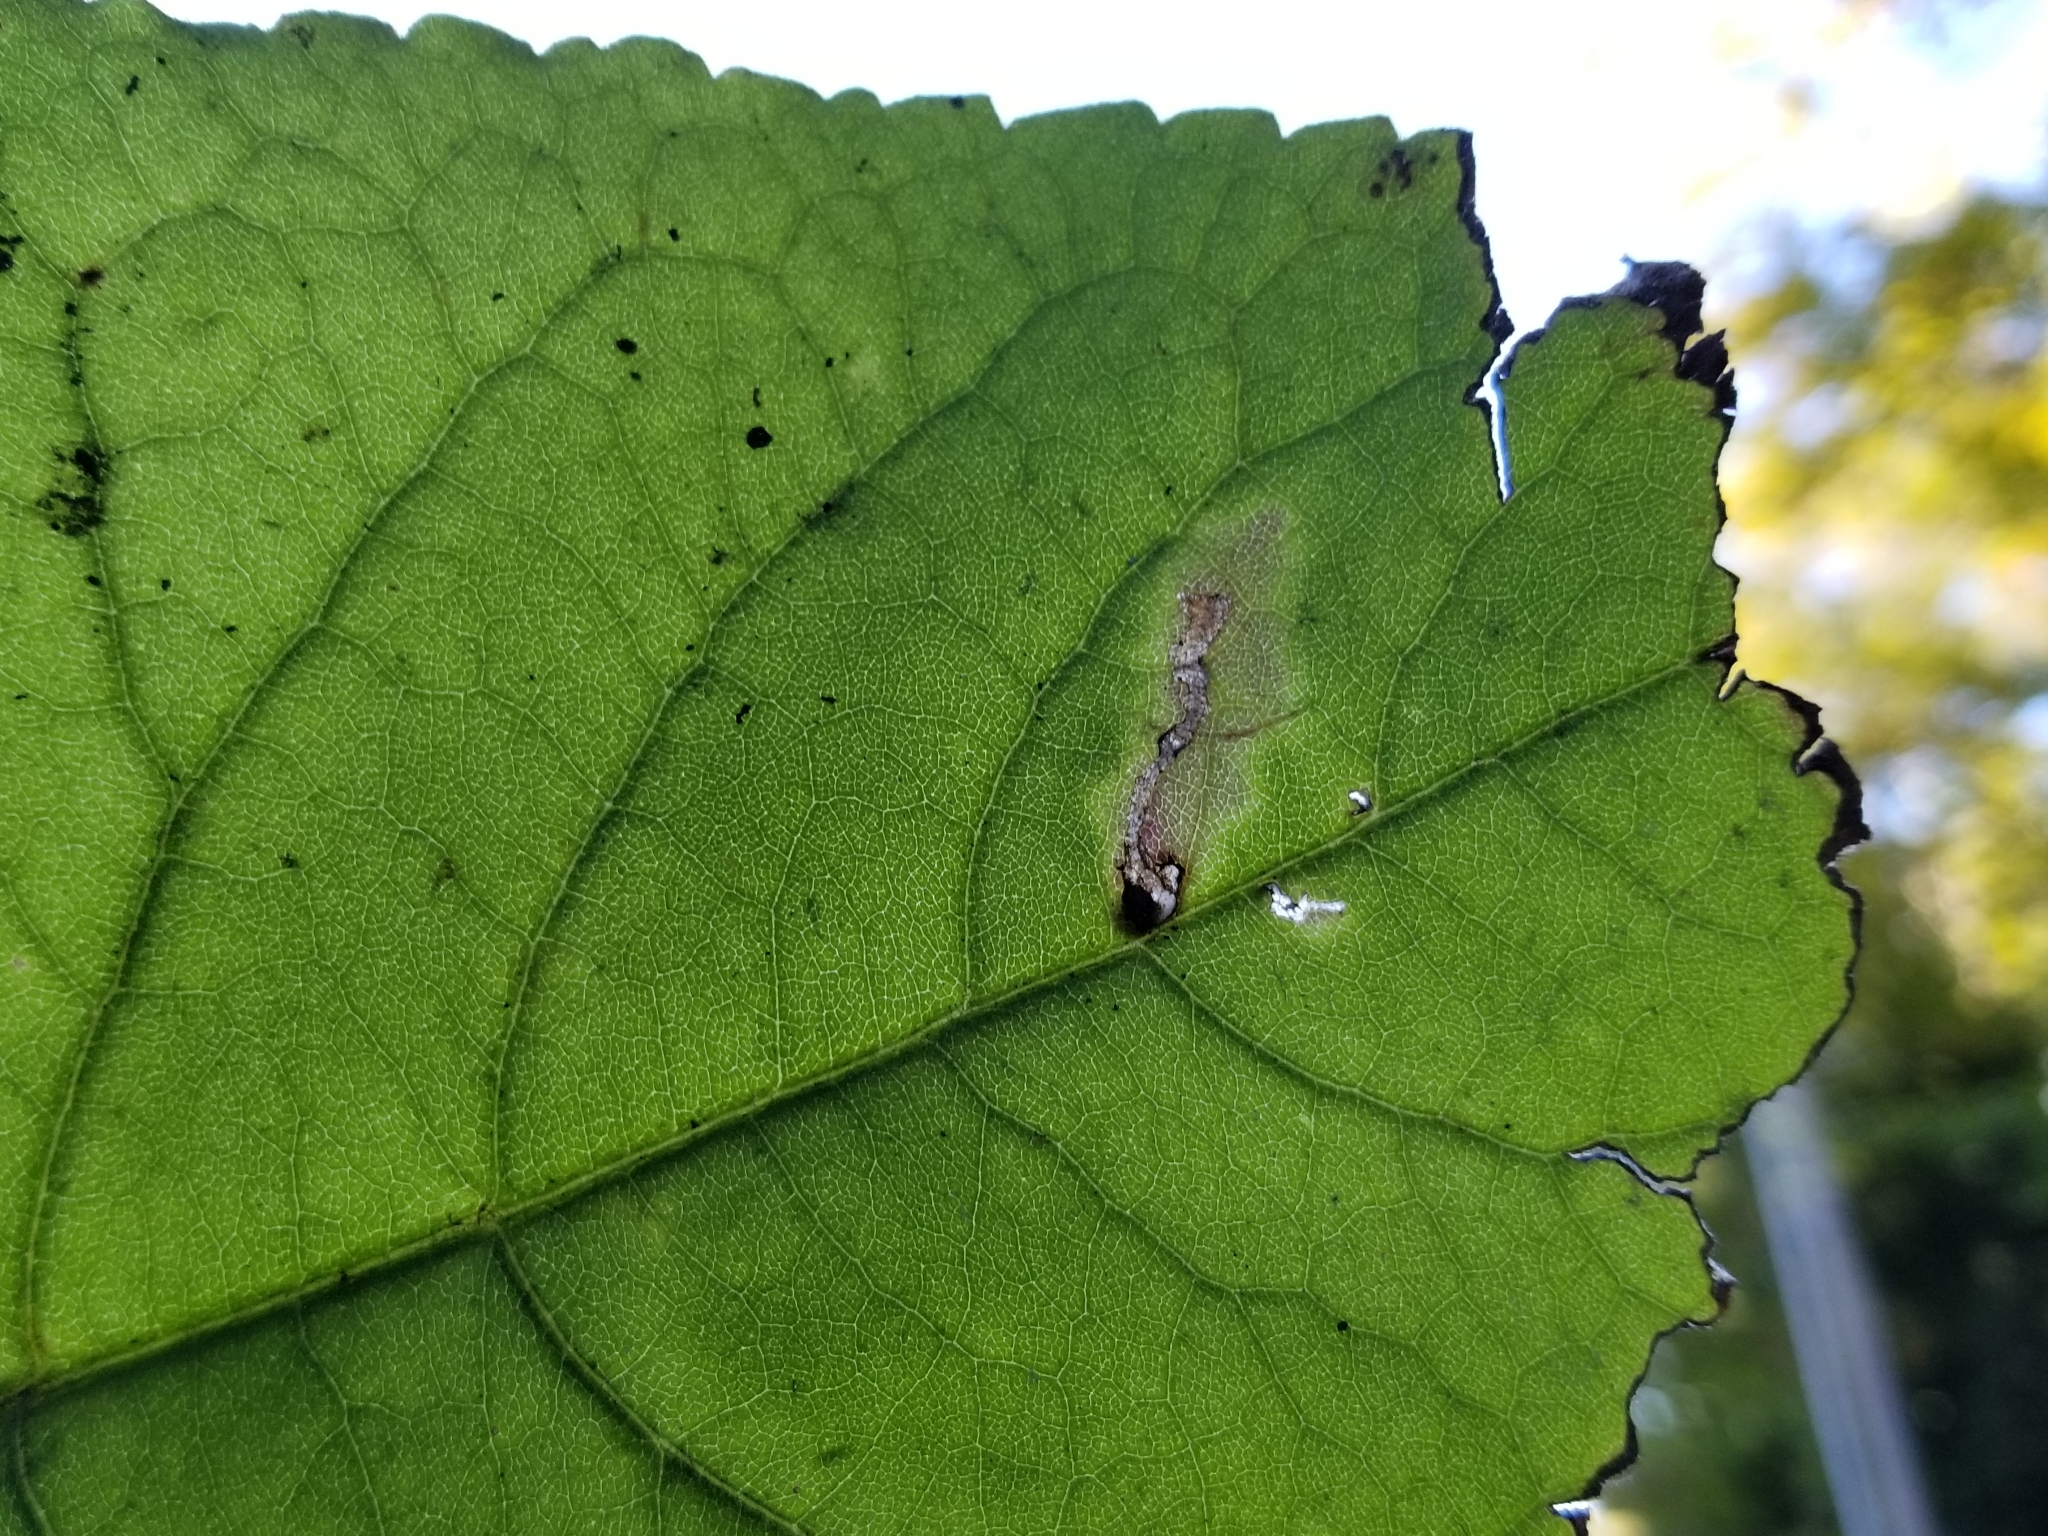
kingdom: Animalia
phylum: Arthropoda
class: Insecta
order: Lepidoptera
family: Gelechiidae
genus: Scrobipalpula
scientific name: Scrobipalpula manierreorum
